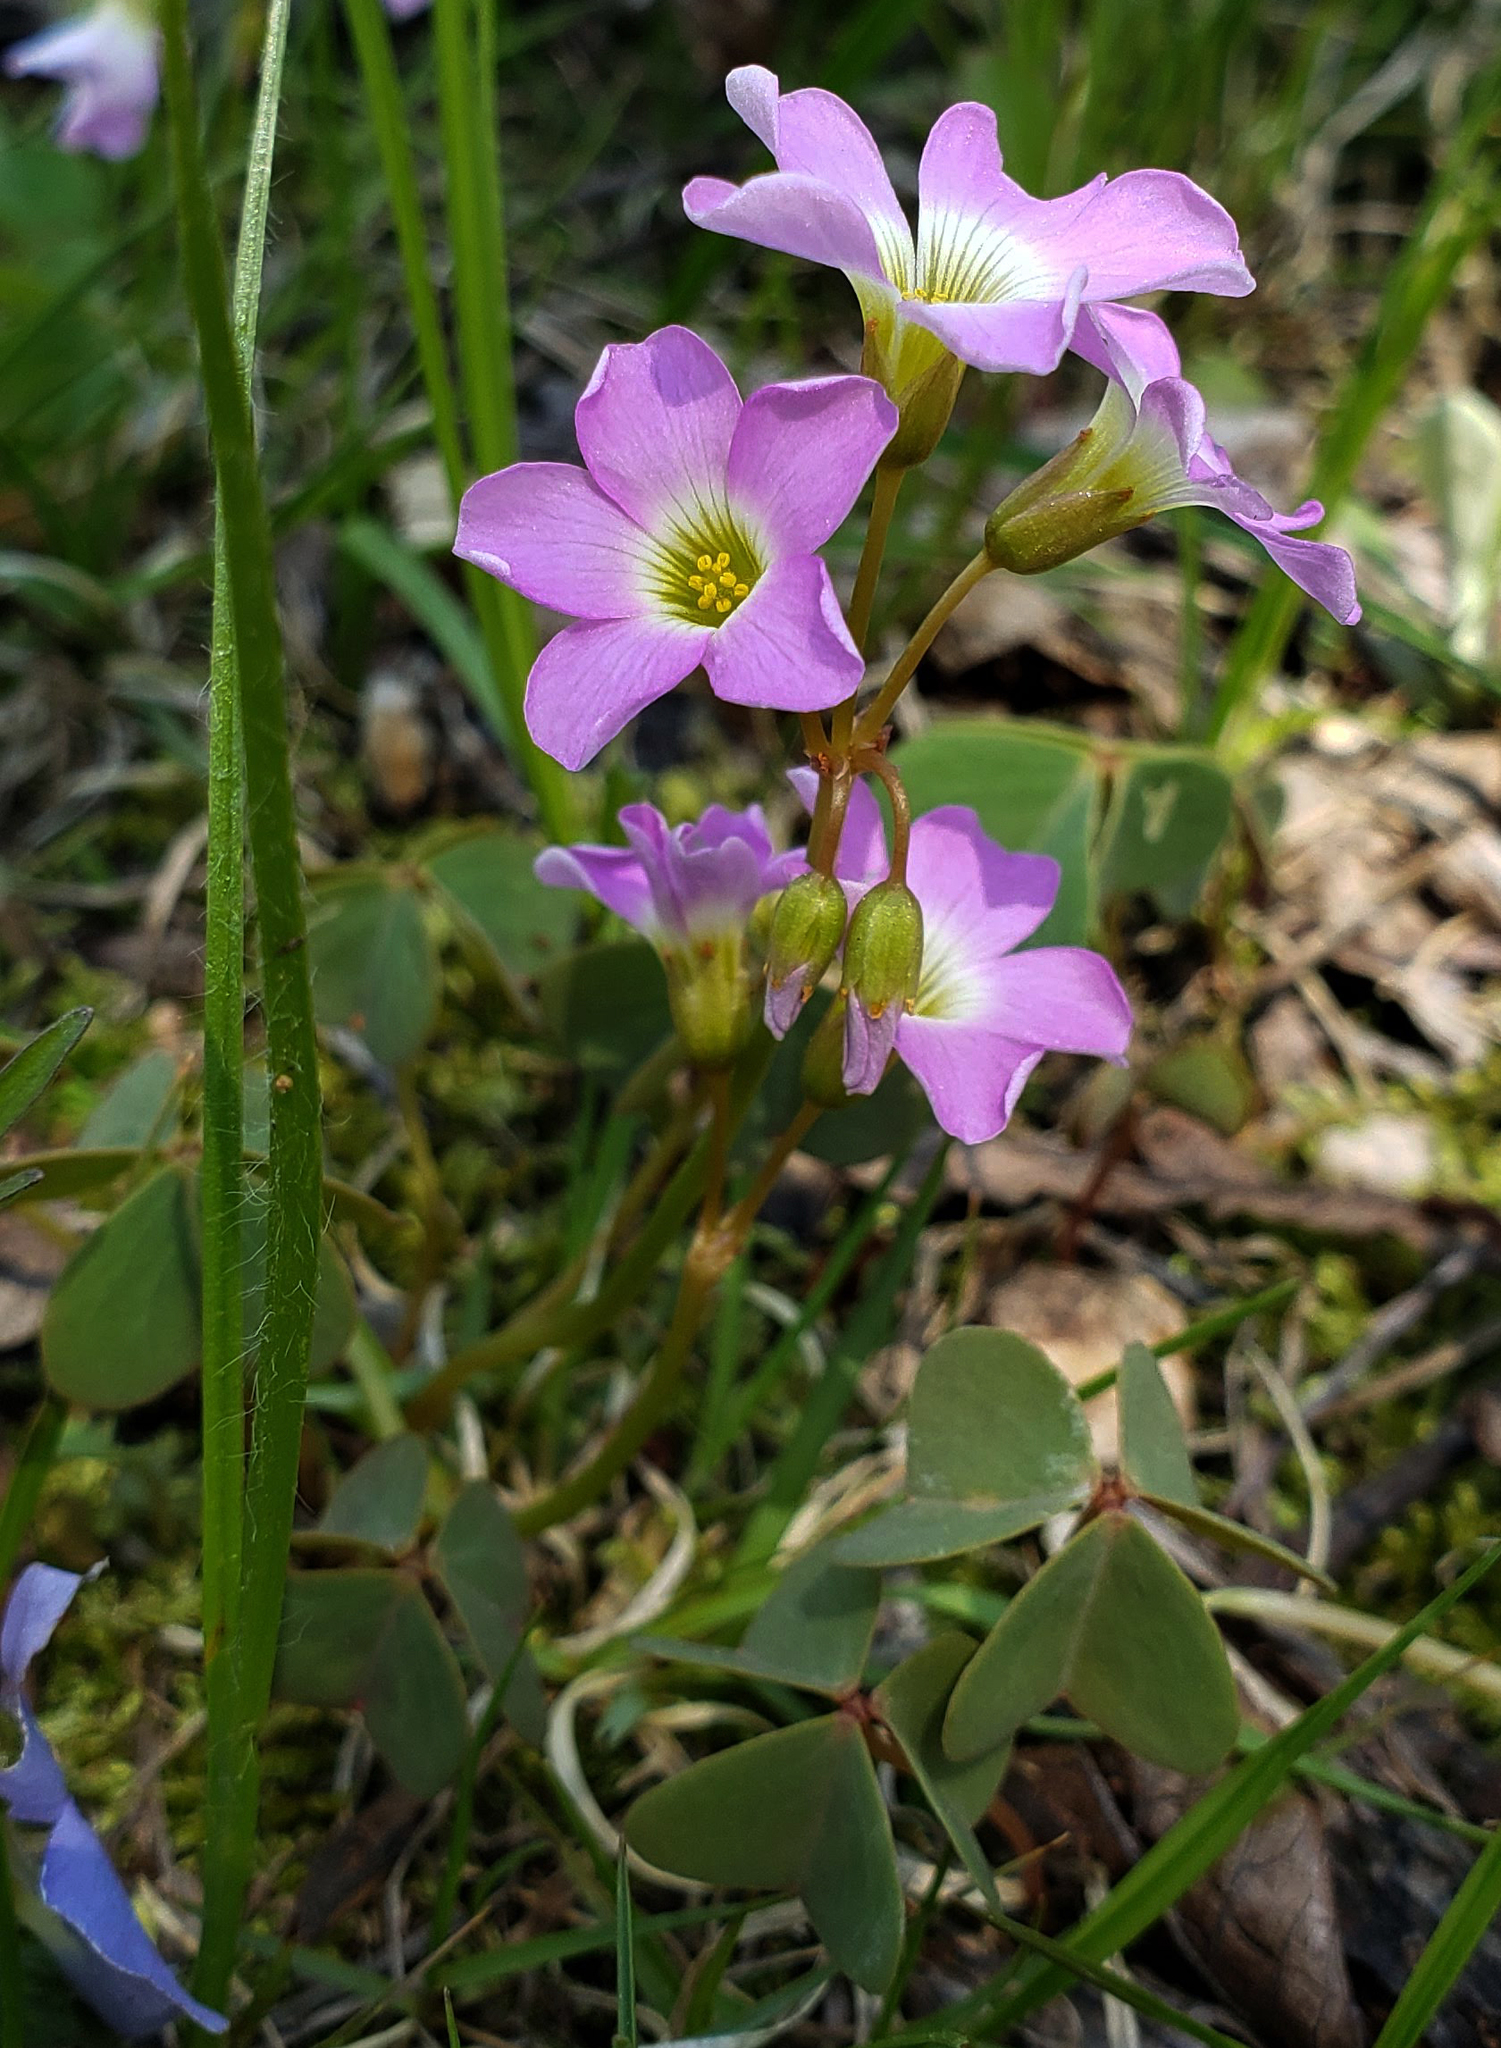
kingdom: Plantae
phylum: Tracheophyta
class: Magnoliopsida
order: Oxalidales
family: Oxalidaceae
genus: Oxalis
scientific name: Oxalis violacea
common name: Violet wood-sorrel
